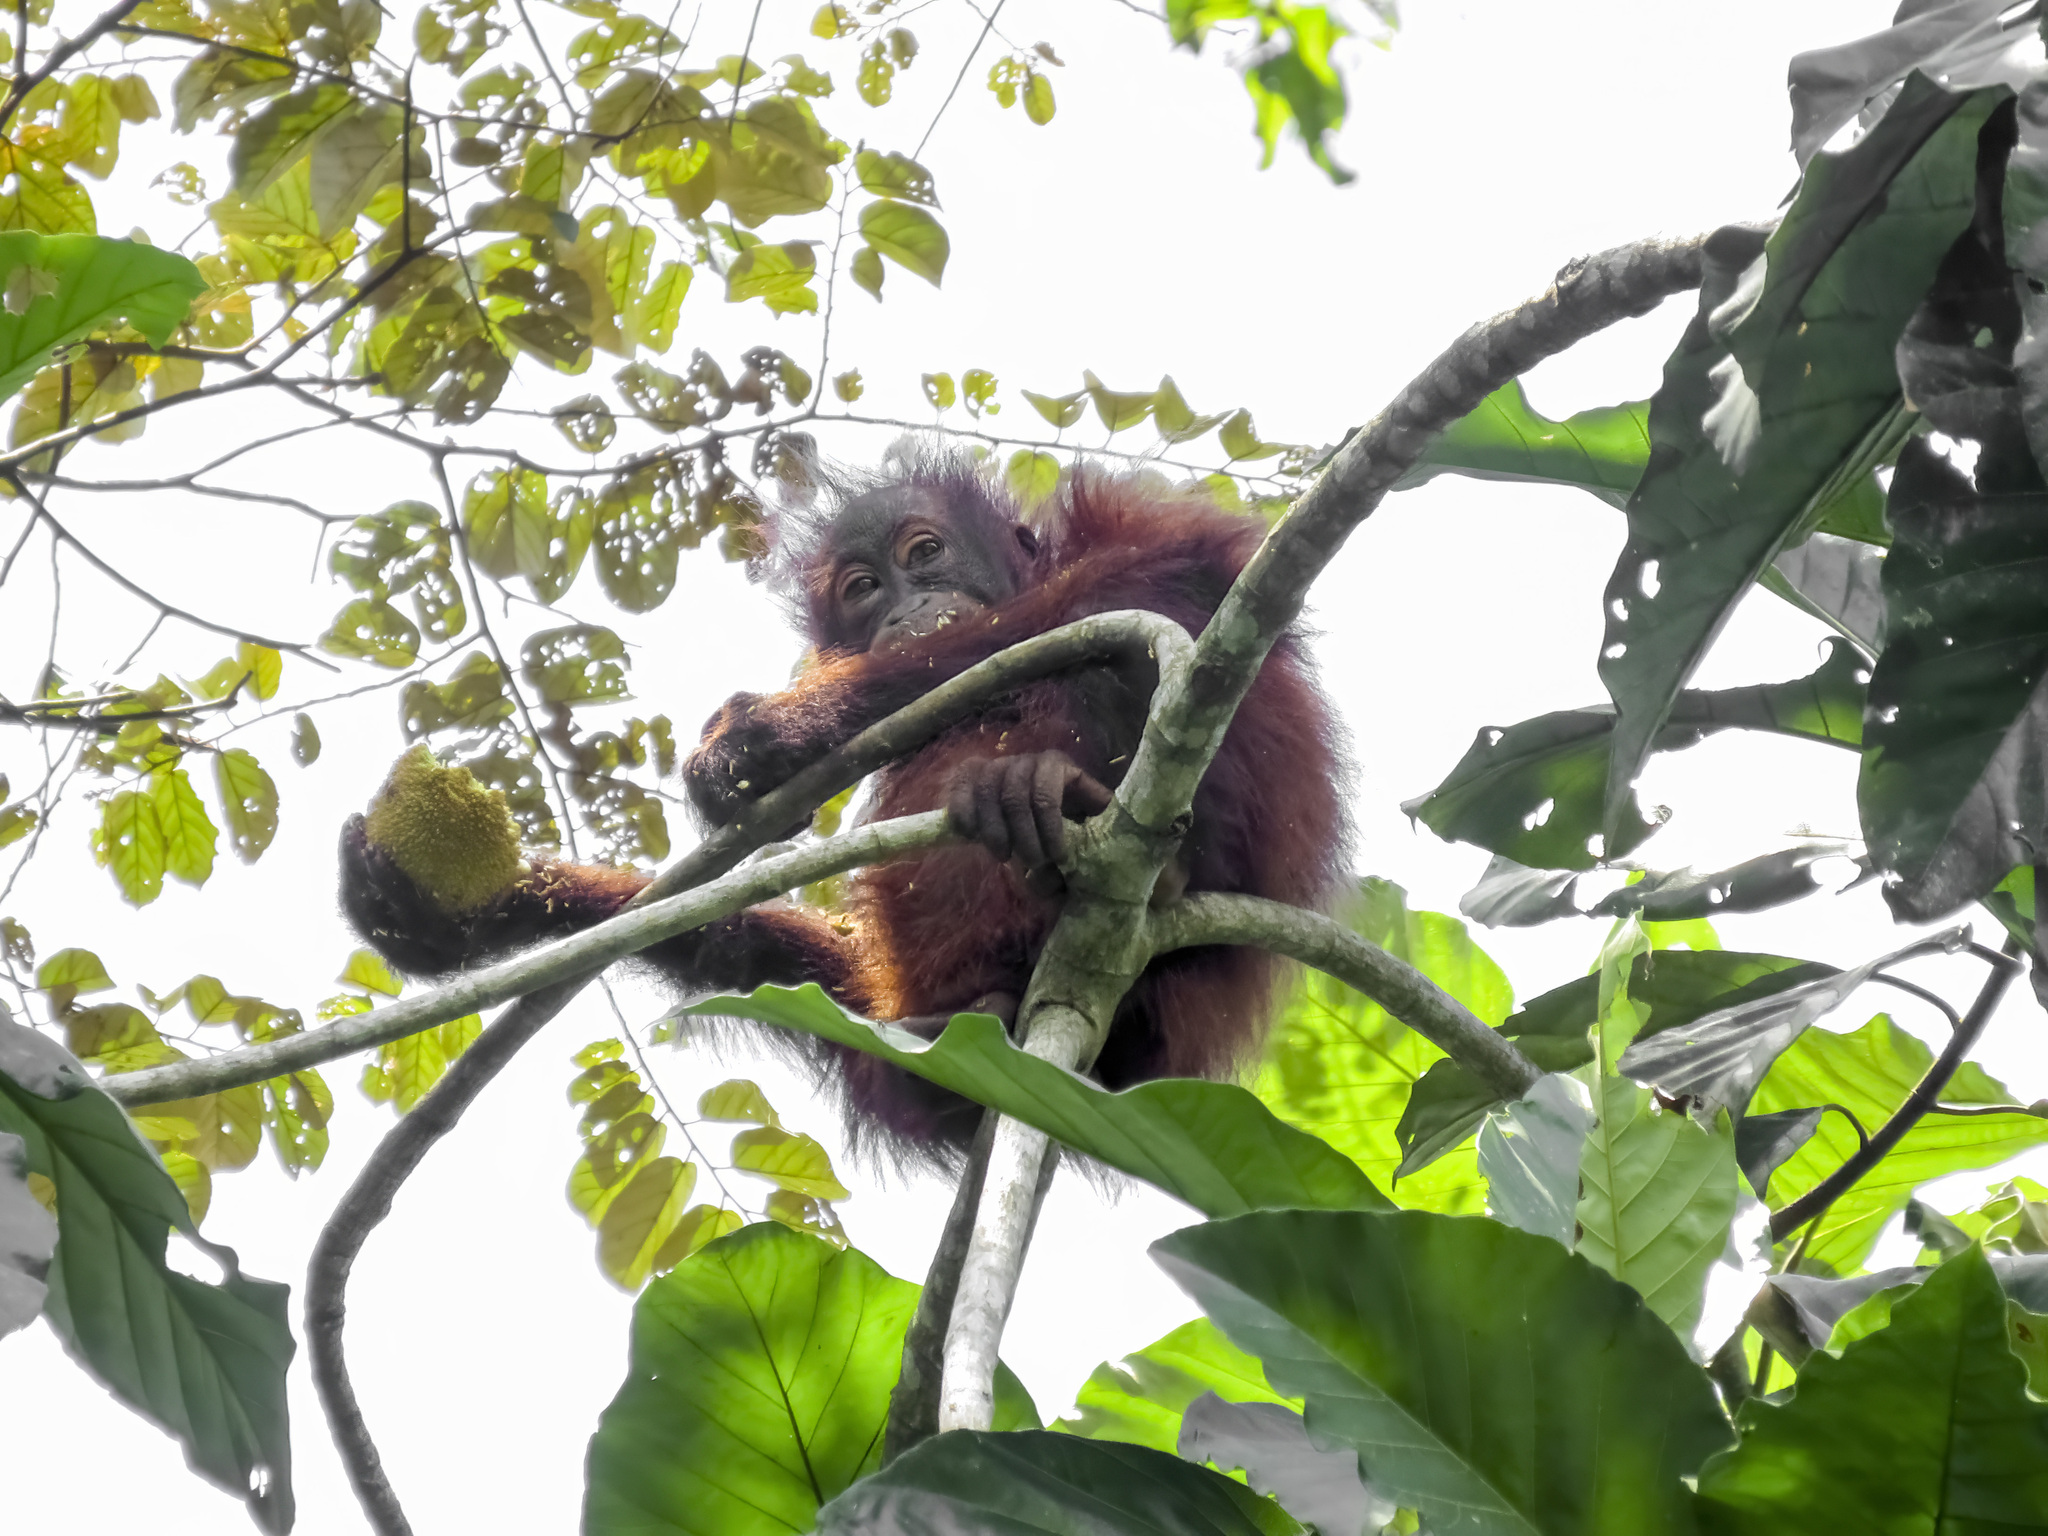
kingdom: Animalia
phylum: Chordata
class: Mammalia
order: Primates
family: Hominidae
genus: Pongo
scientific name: Pongo pygmaeus
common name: Bornean orangutan
